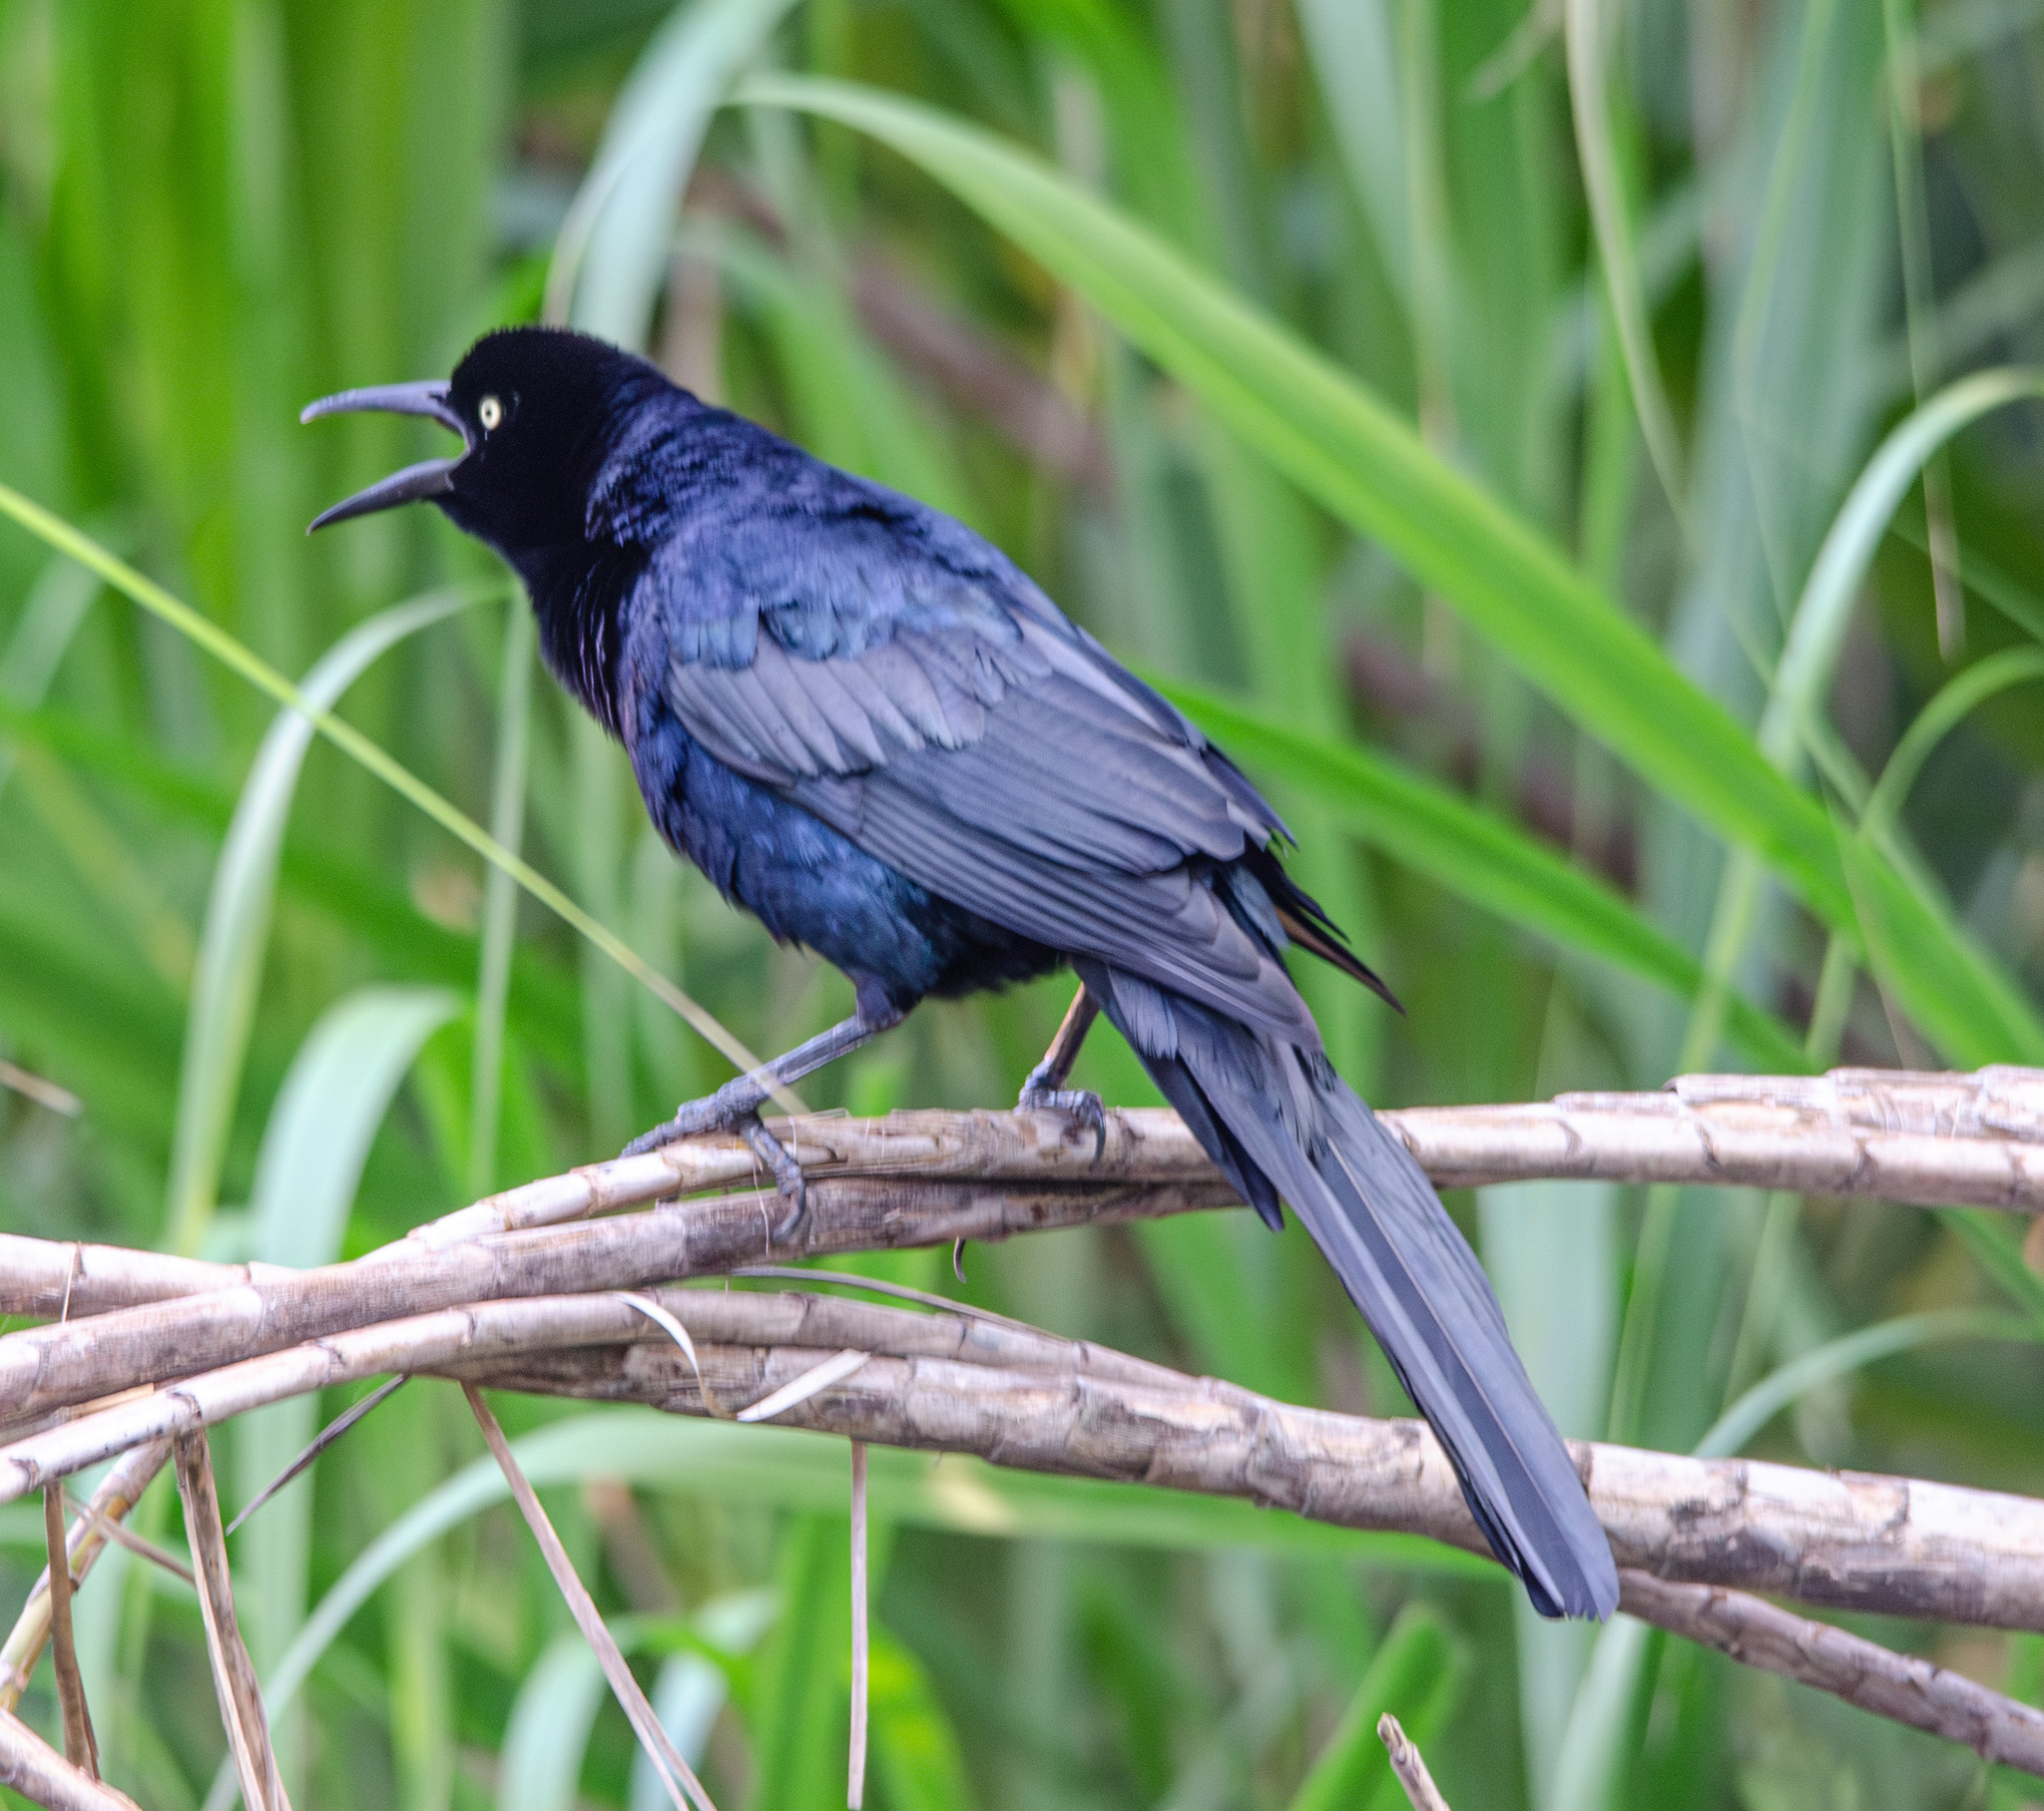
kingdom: Animalia
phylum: Chordata
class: Aves
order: Passeriformes
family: Icteridae
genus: Quiscalus
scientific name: Quiscalus mexicanus
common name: Great-tailed grackle
